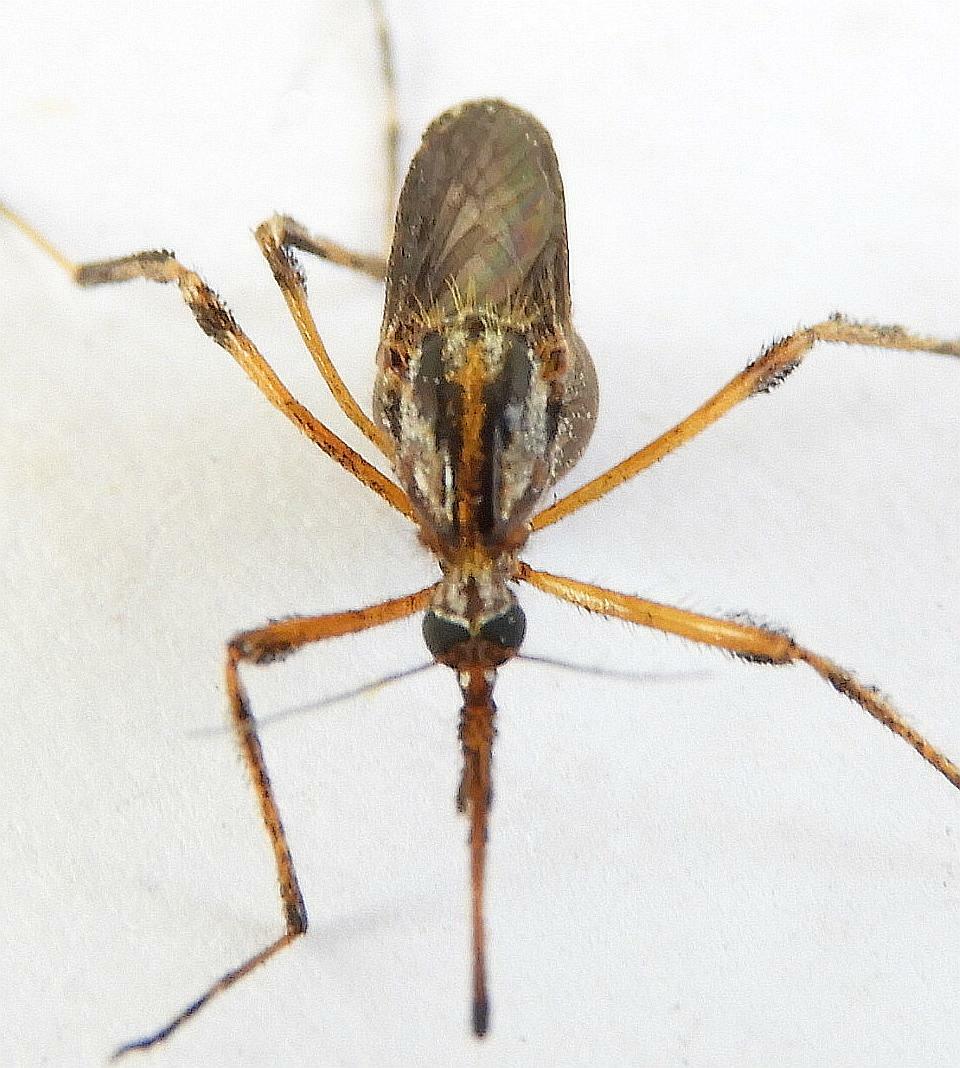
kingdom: Animalia
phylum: Arthropoda
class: Insecta
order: Diptera
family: Culicidae
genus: Psorophora
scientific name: Psorophora ciliata
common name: Gallinipper
